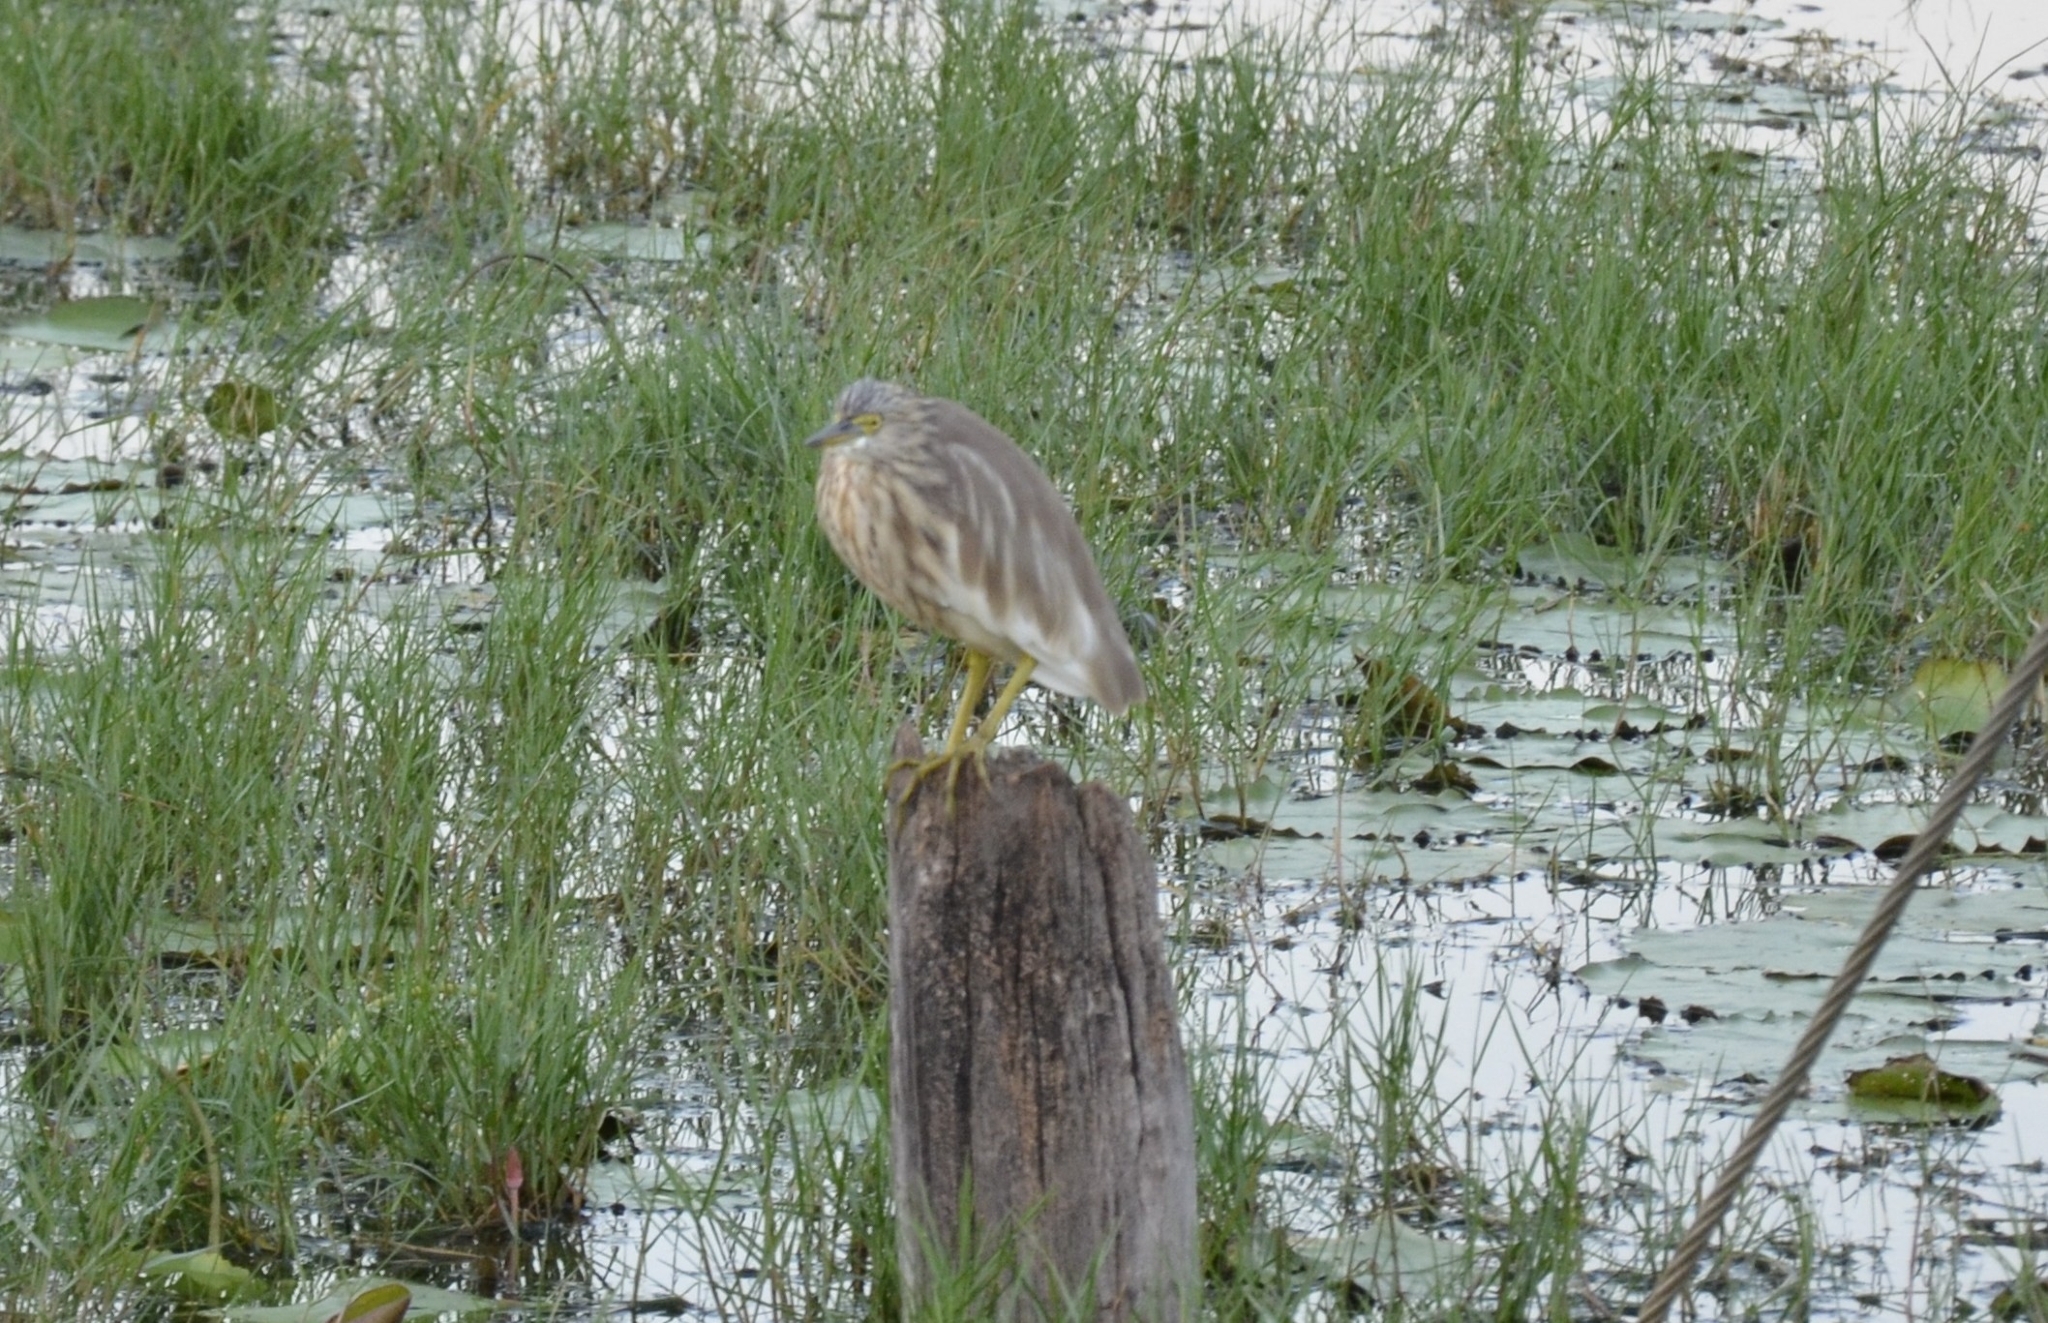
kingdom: Animalia
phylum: Chordata
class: Aves
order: Pelecaniformes
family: Ardeidae
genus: Ardeola
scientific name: Ardeola grayii
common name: Indian pond heron
